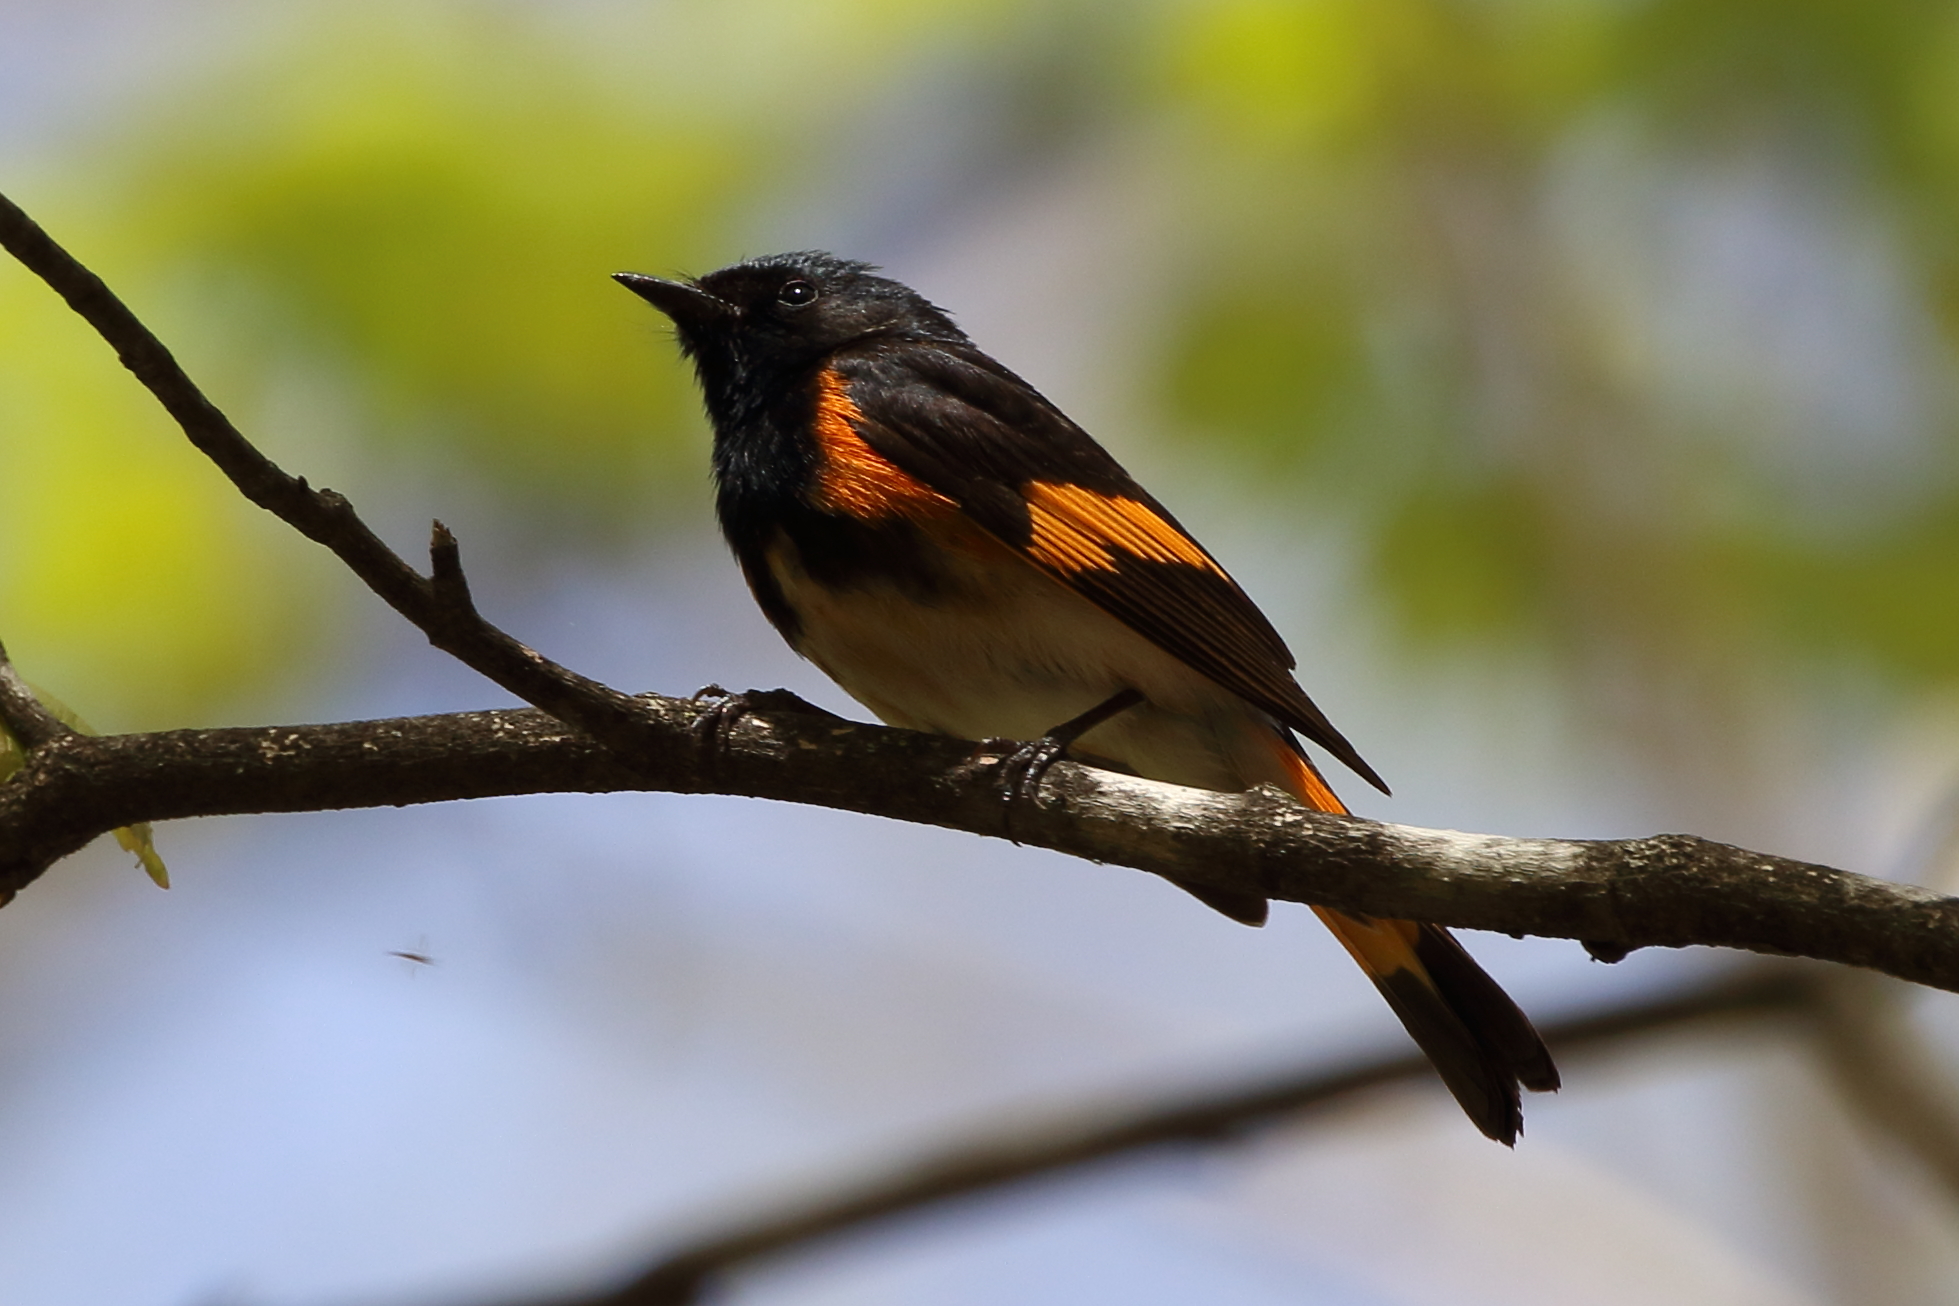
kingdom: Animalia
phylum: Chordata
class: Aves
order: Passeriformes
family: Parulidae
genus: Setophaga
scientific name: Setophaga ruticilla
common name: American redstart
